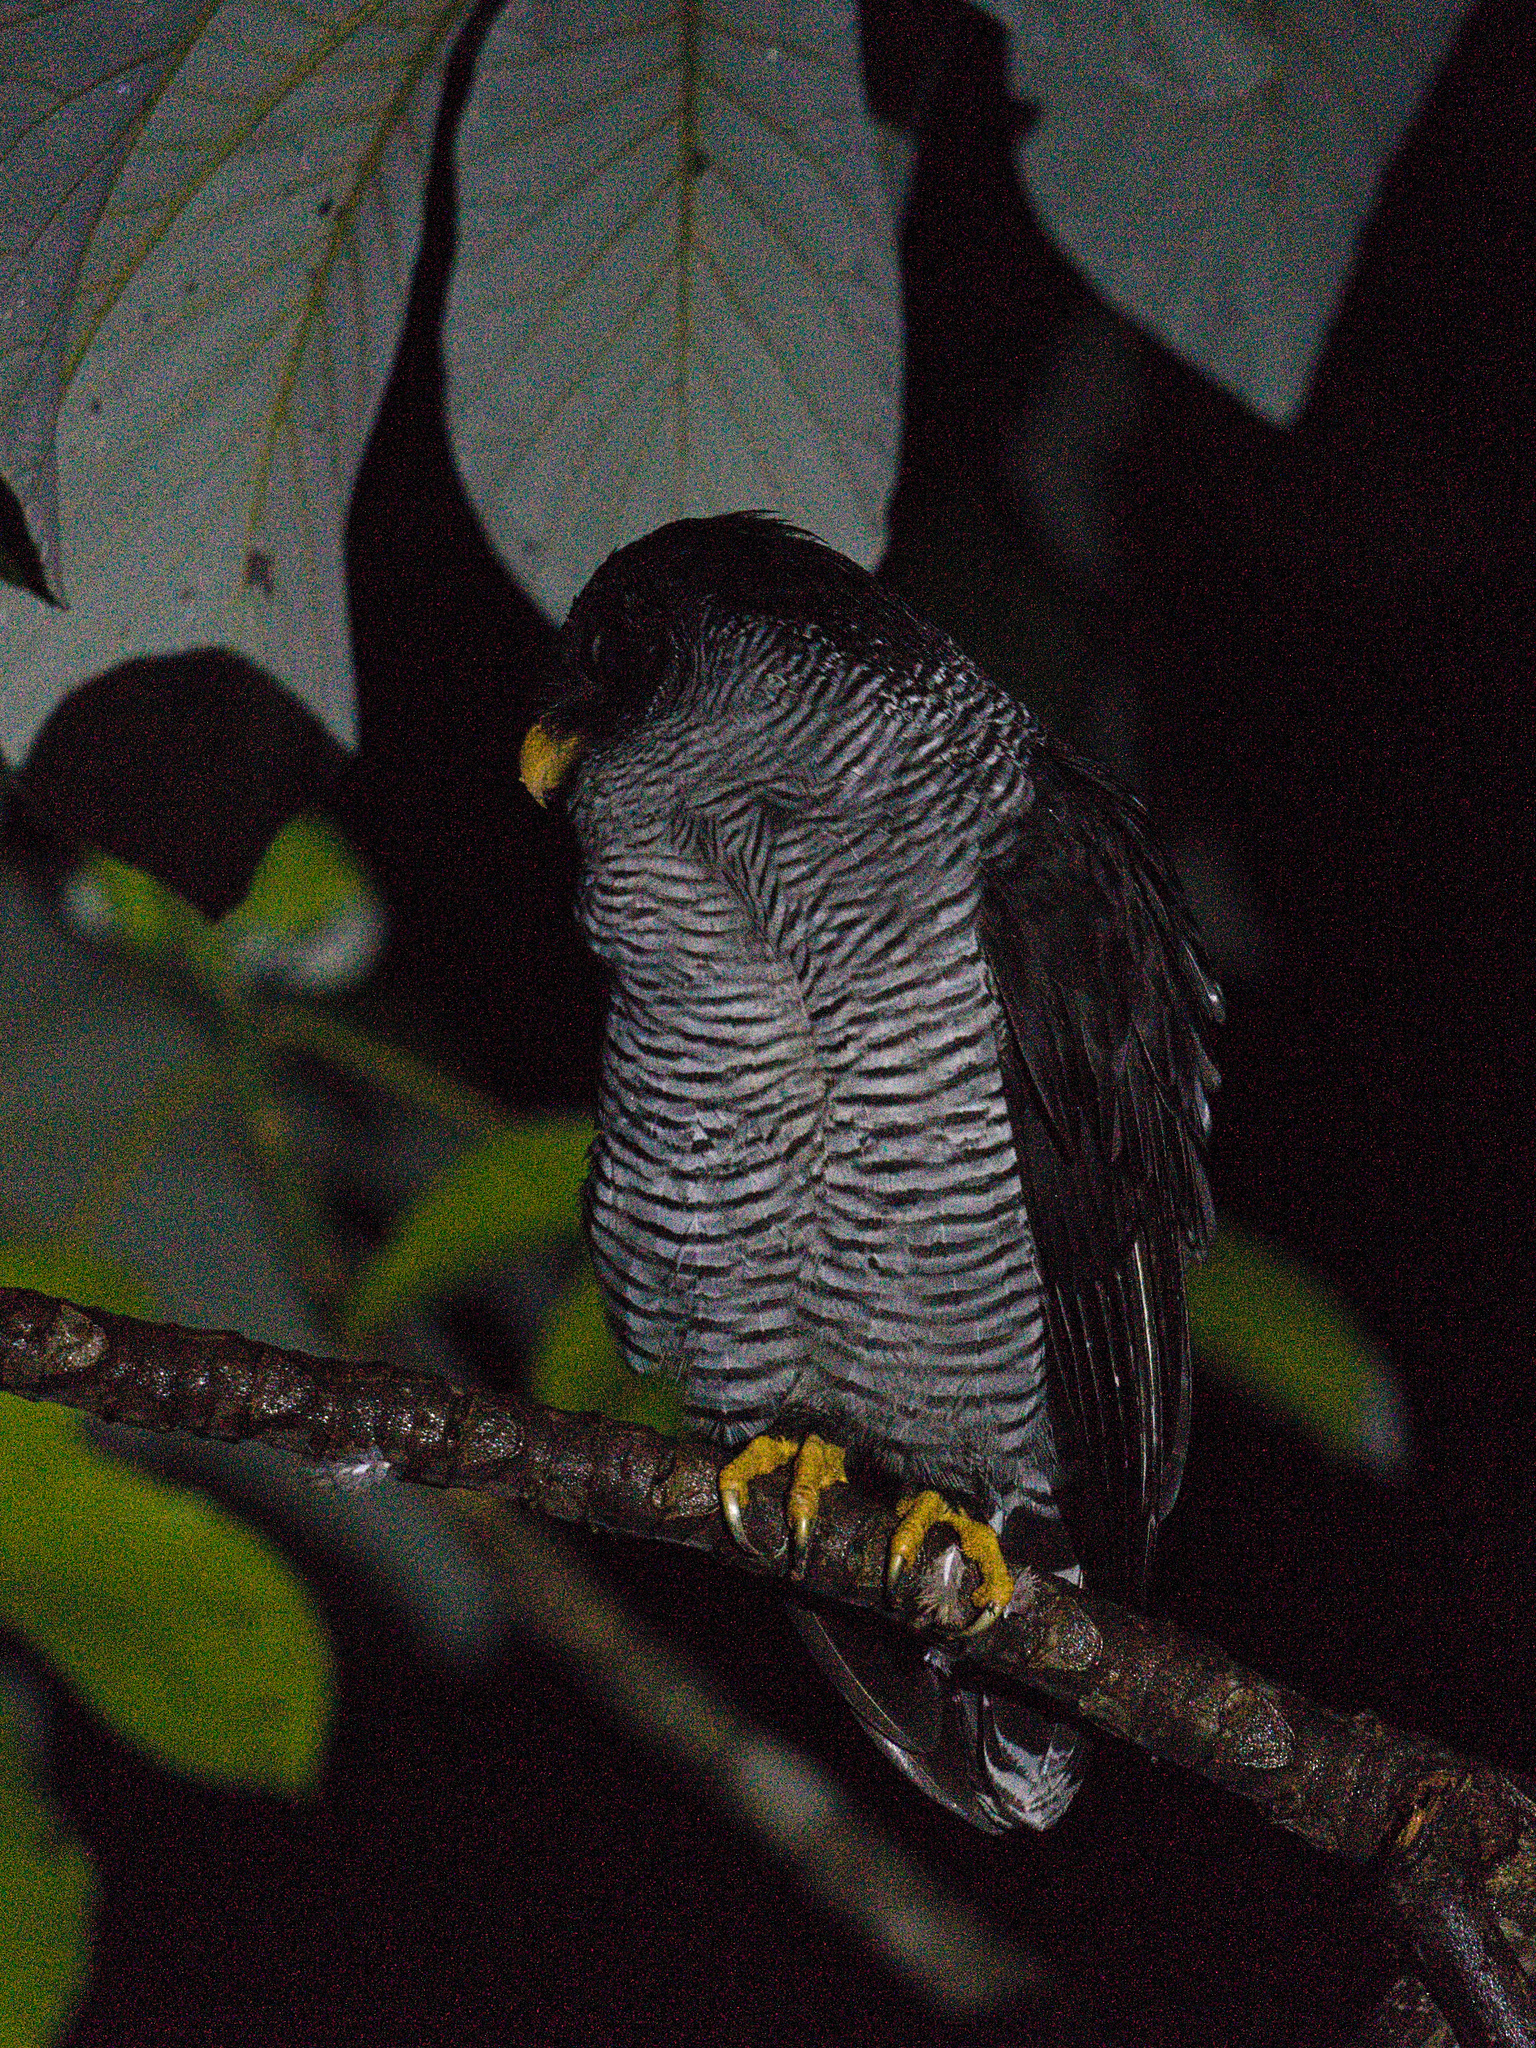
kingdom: Animalia
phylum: Chordata
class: Aves
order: Strigiformes
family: Strigidae
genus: Strix
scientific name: Strix nigrolineata
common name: Black-and-white owl
